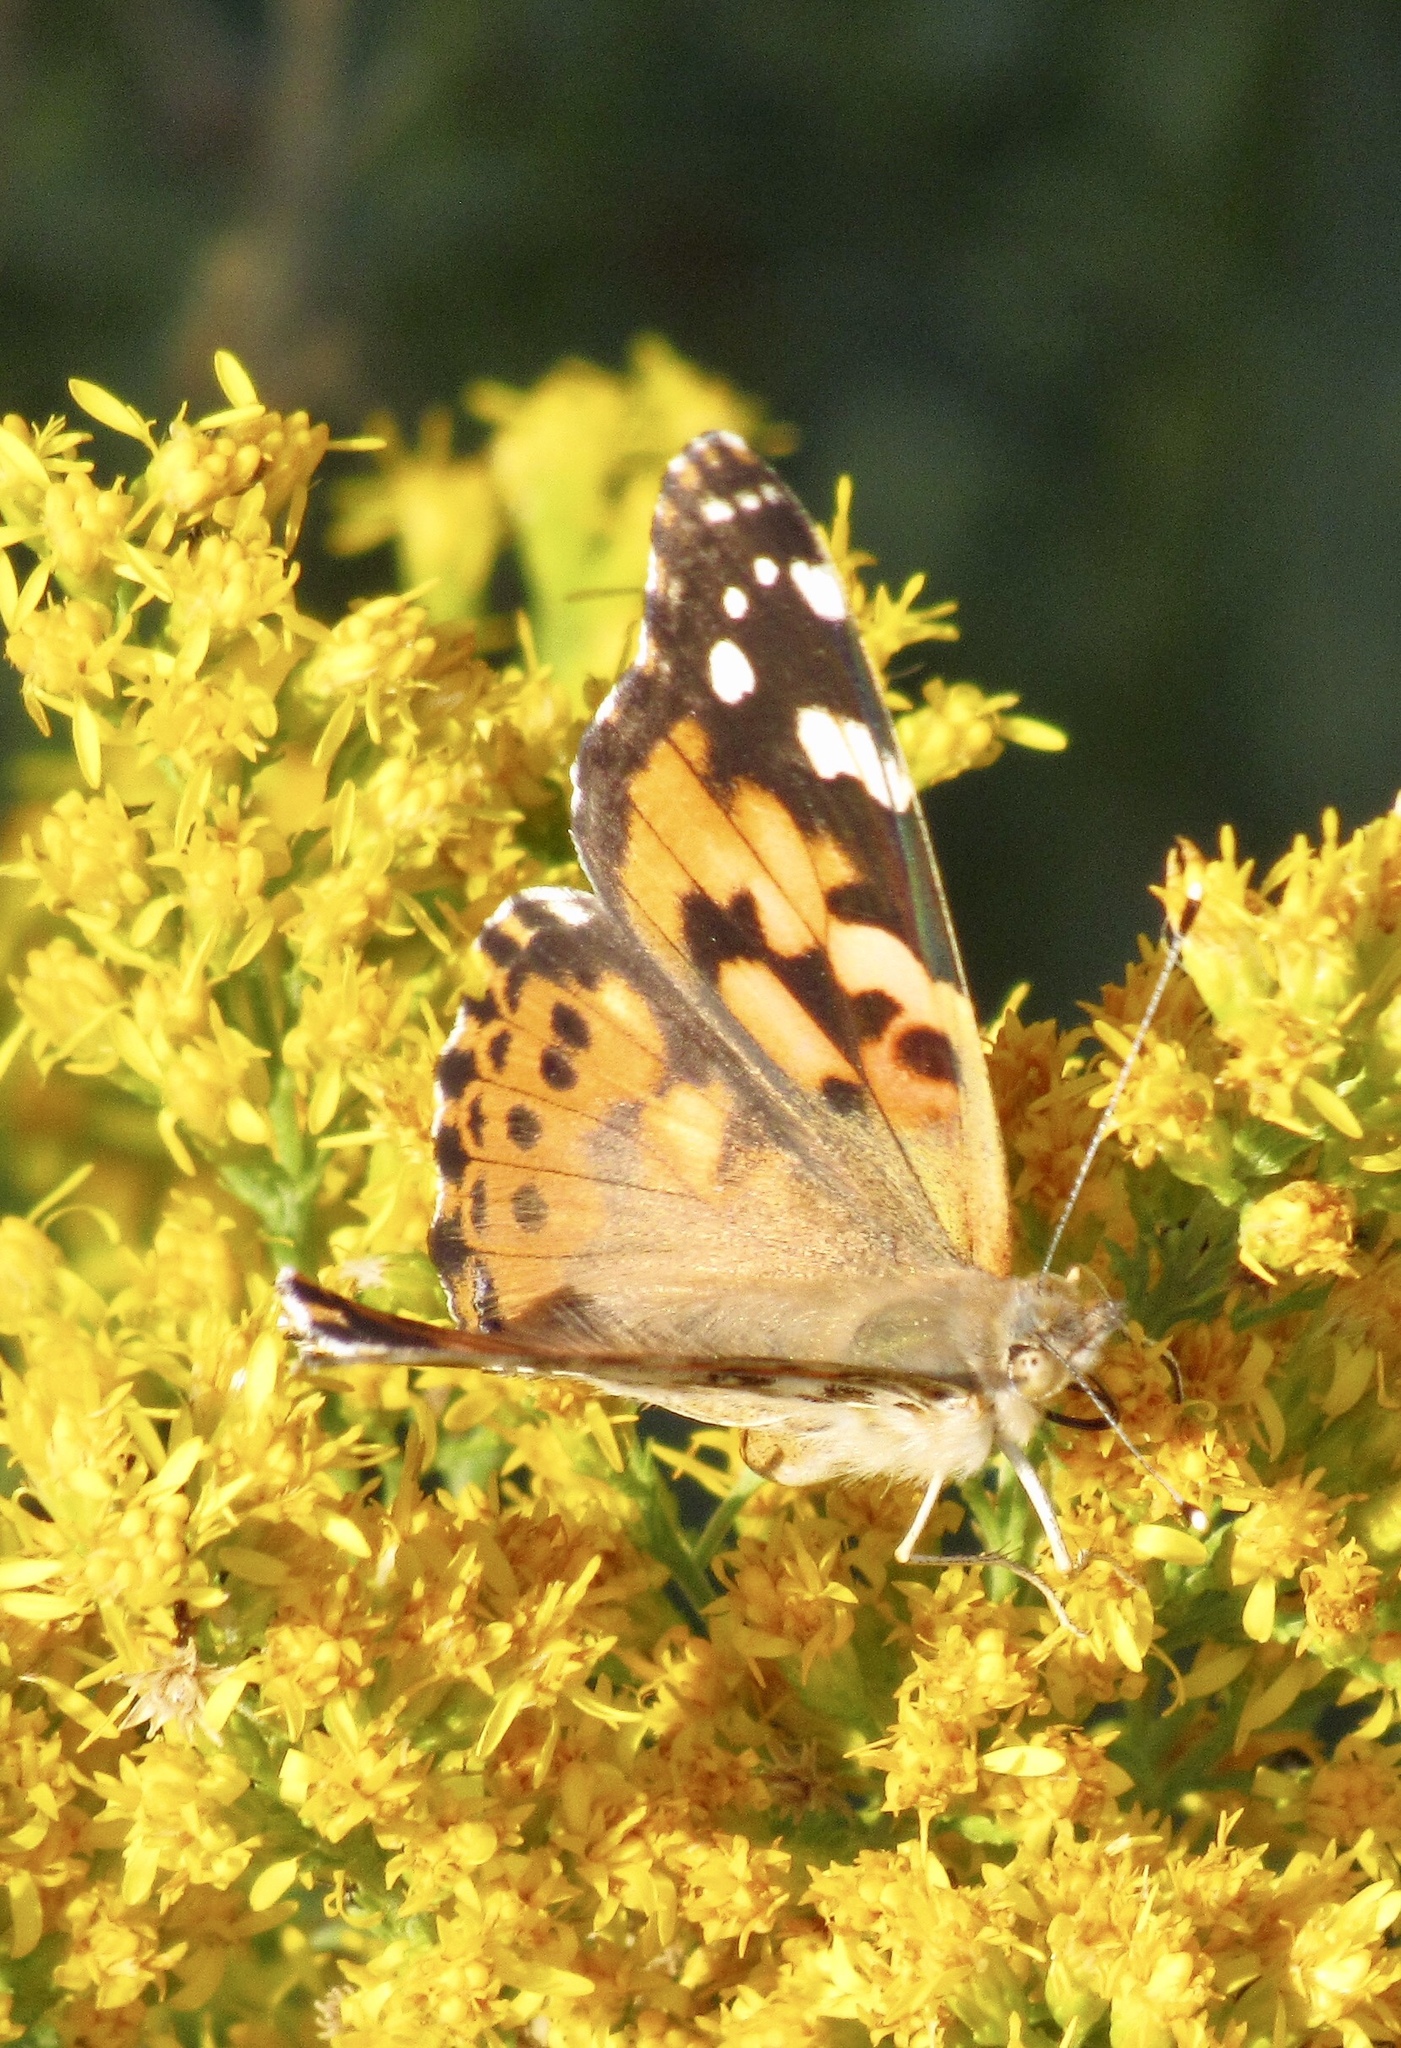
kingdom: Animalia
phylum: Arthropoda
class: Insecta
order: Lepidoptera
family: Nymphalidae
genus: Vanessa
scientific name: Vanessa cardui
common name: Painted lady
